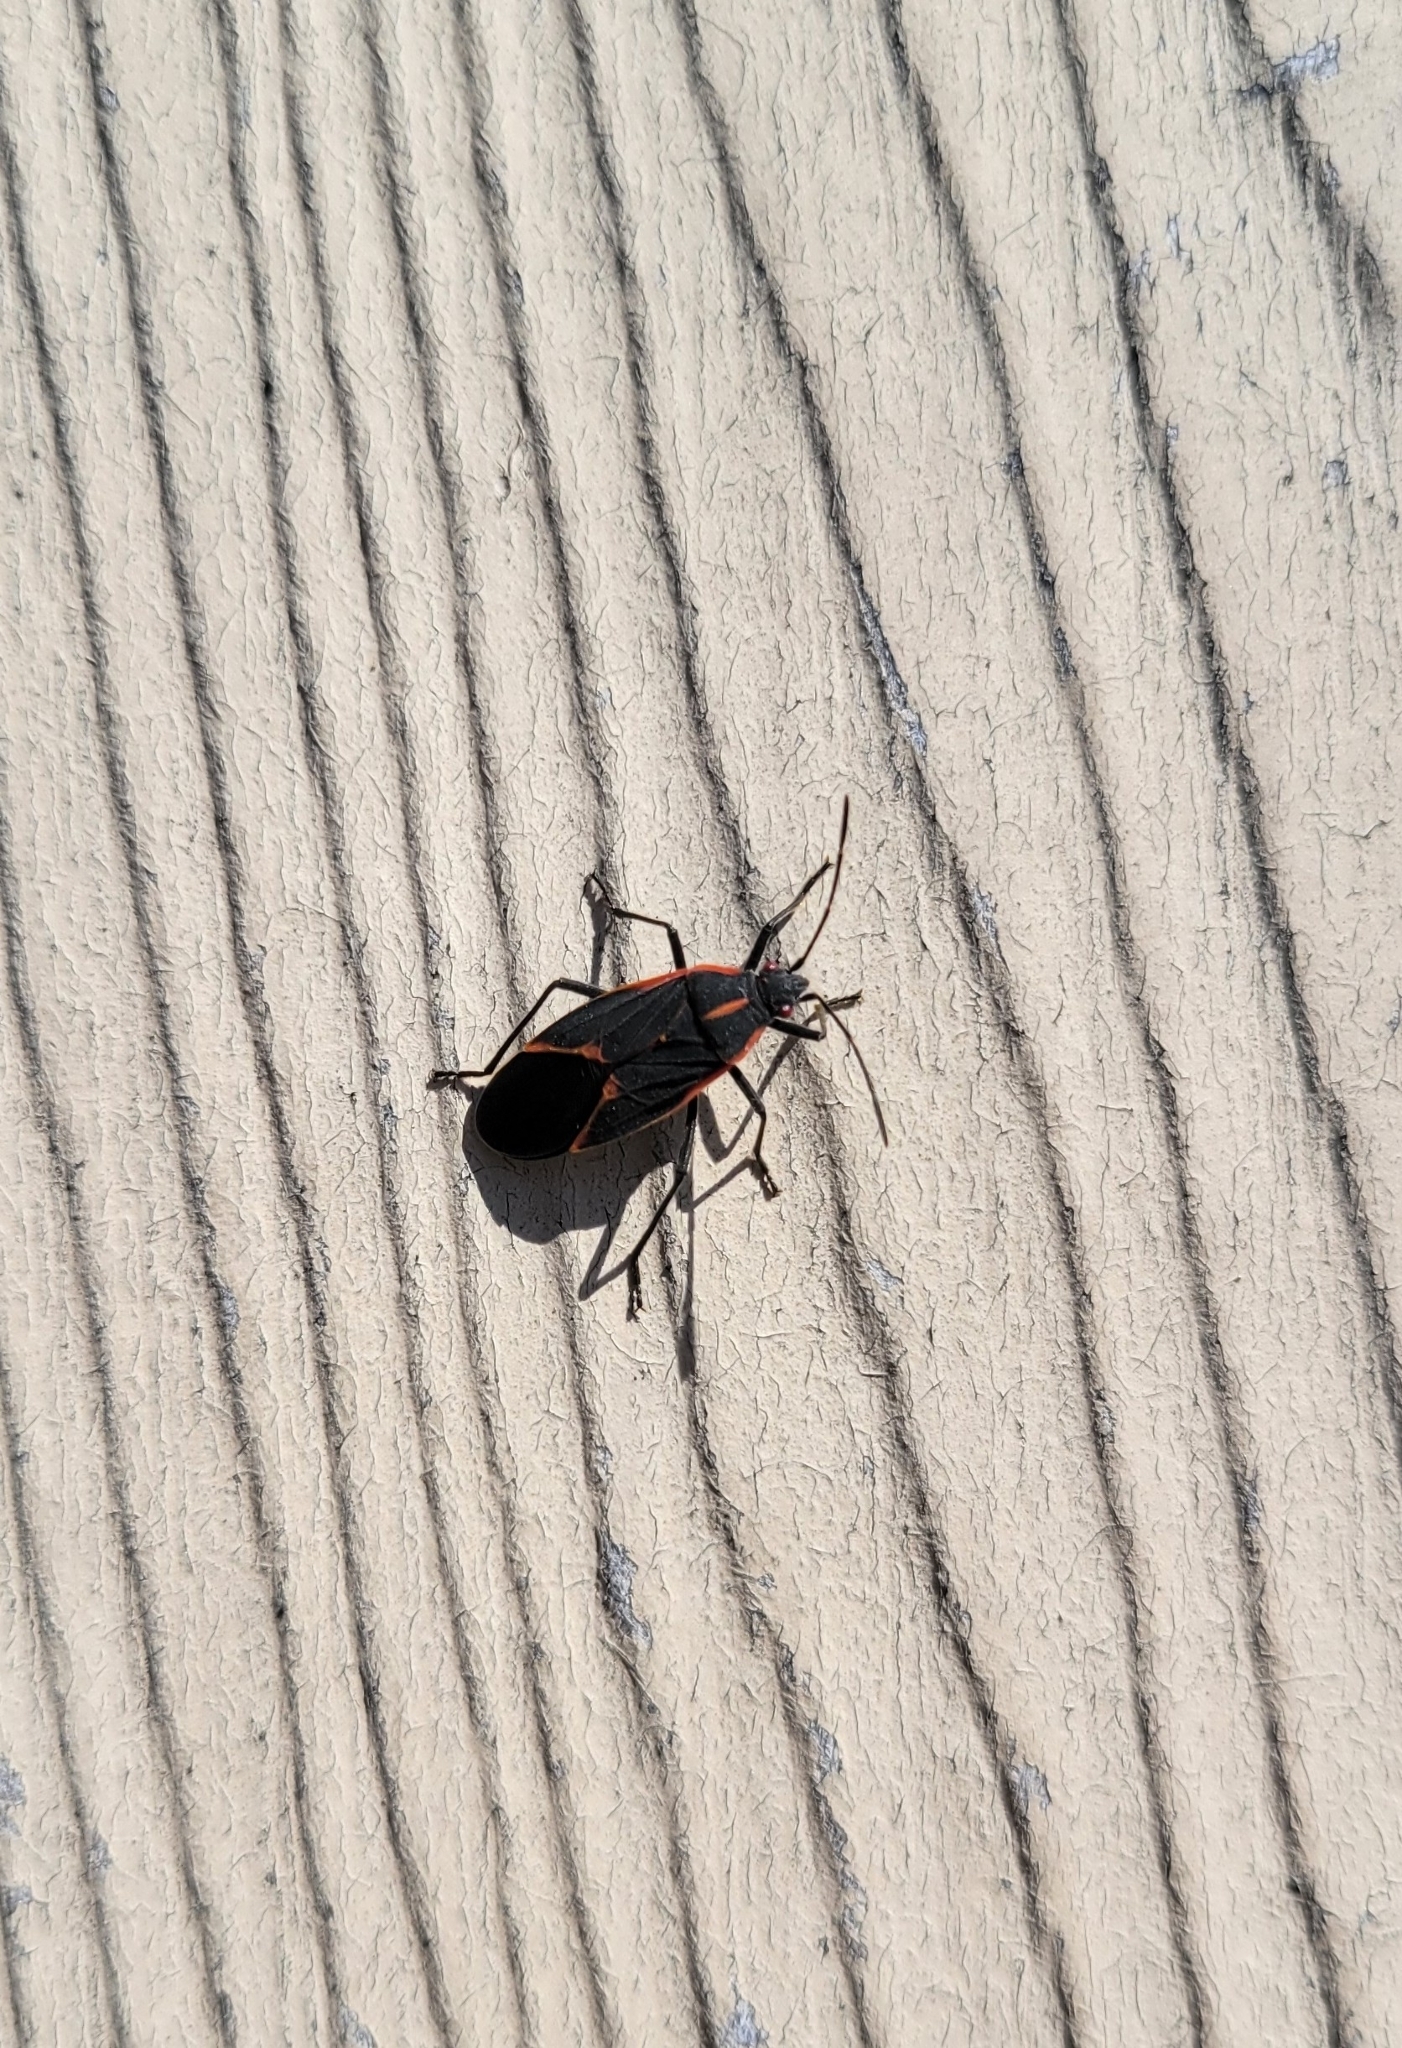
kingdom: Animalia
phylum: Arthropoda
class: Insecta
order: Hemiptera
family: Rhopalidae
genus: Boisea
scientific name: Boisea trivittata
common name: Boxelder bug
